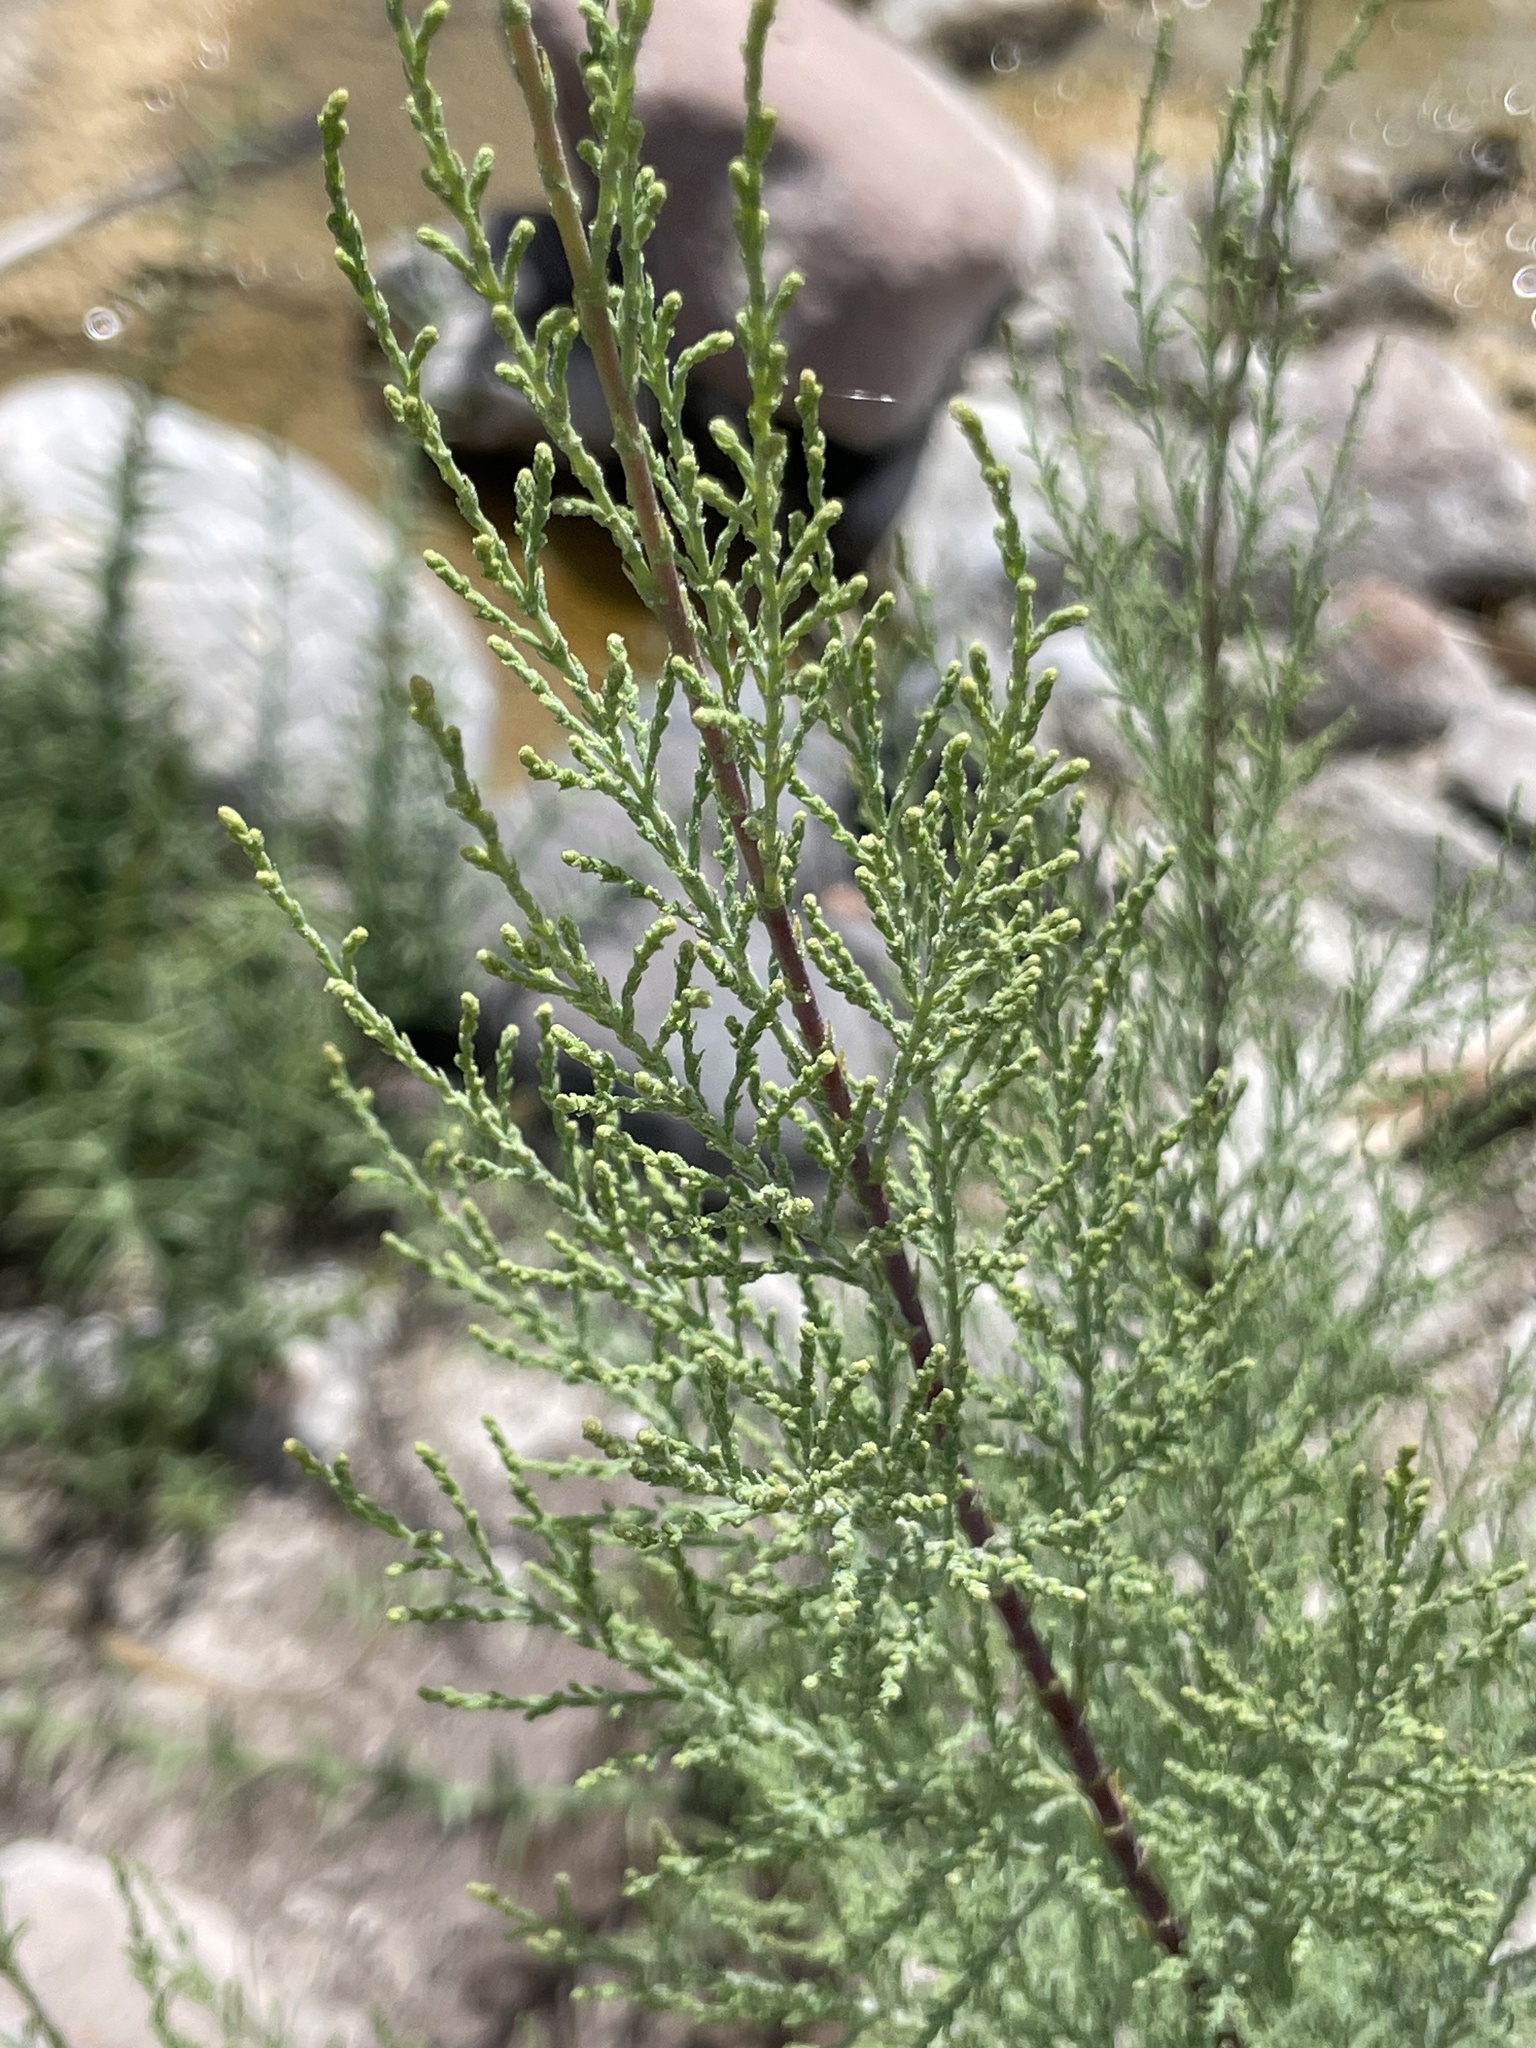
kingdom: Plantae
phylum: Tracheophyta
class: Magnoliopsida
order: Caryophyllales
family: Tamaricaceae
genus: Tamarix
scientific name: Tamarix ramosissima
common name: Pink tamarisk
